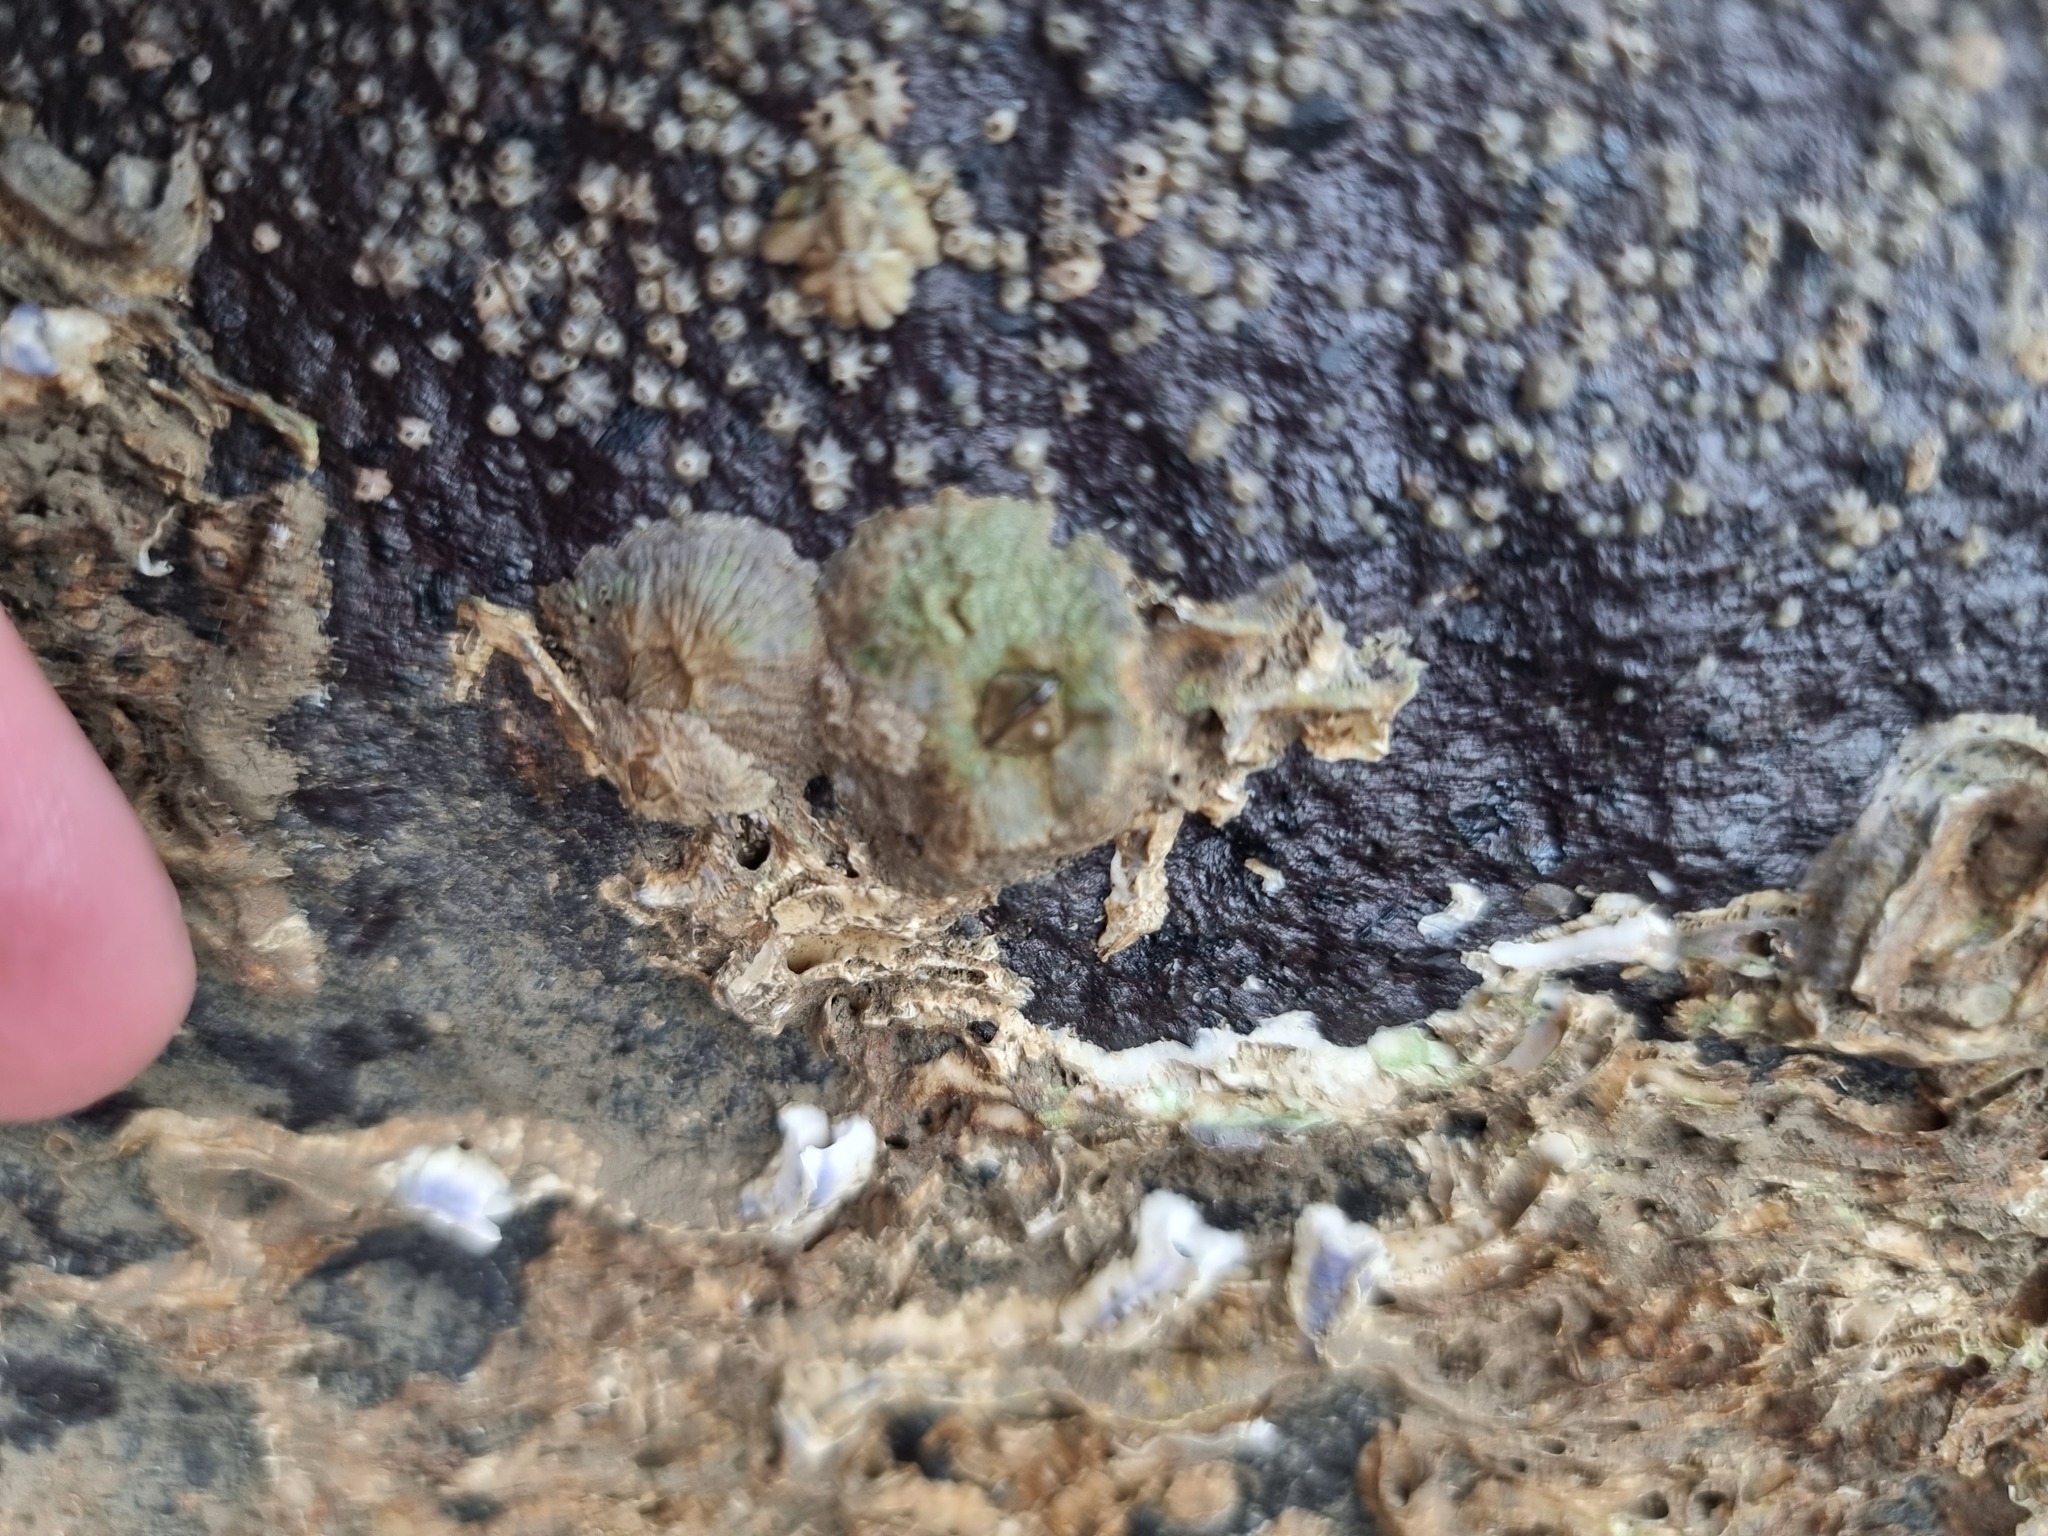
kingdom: Animalia
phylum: Arthropoda
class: Maxillopoda
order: Sessilia
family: Tetraclitidae
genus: Tetraclitella
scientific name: Tetraclitella depressa
